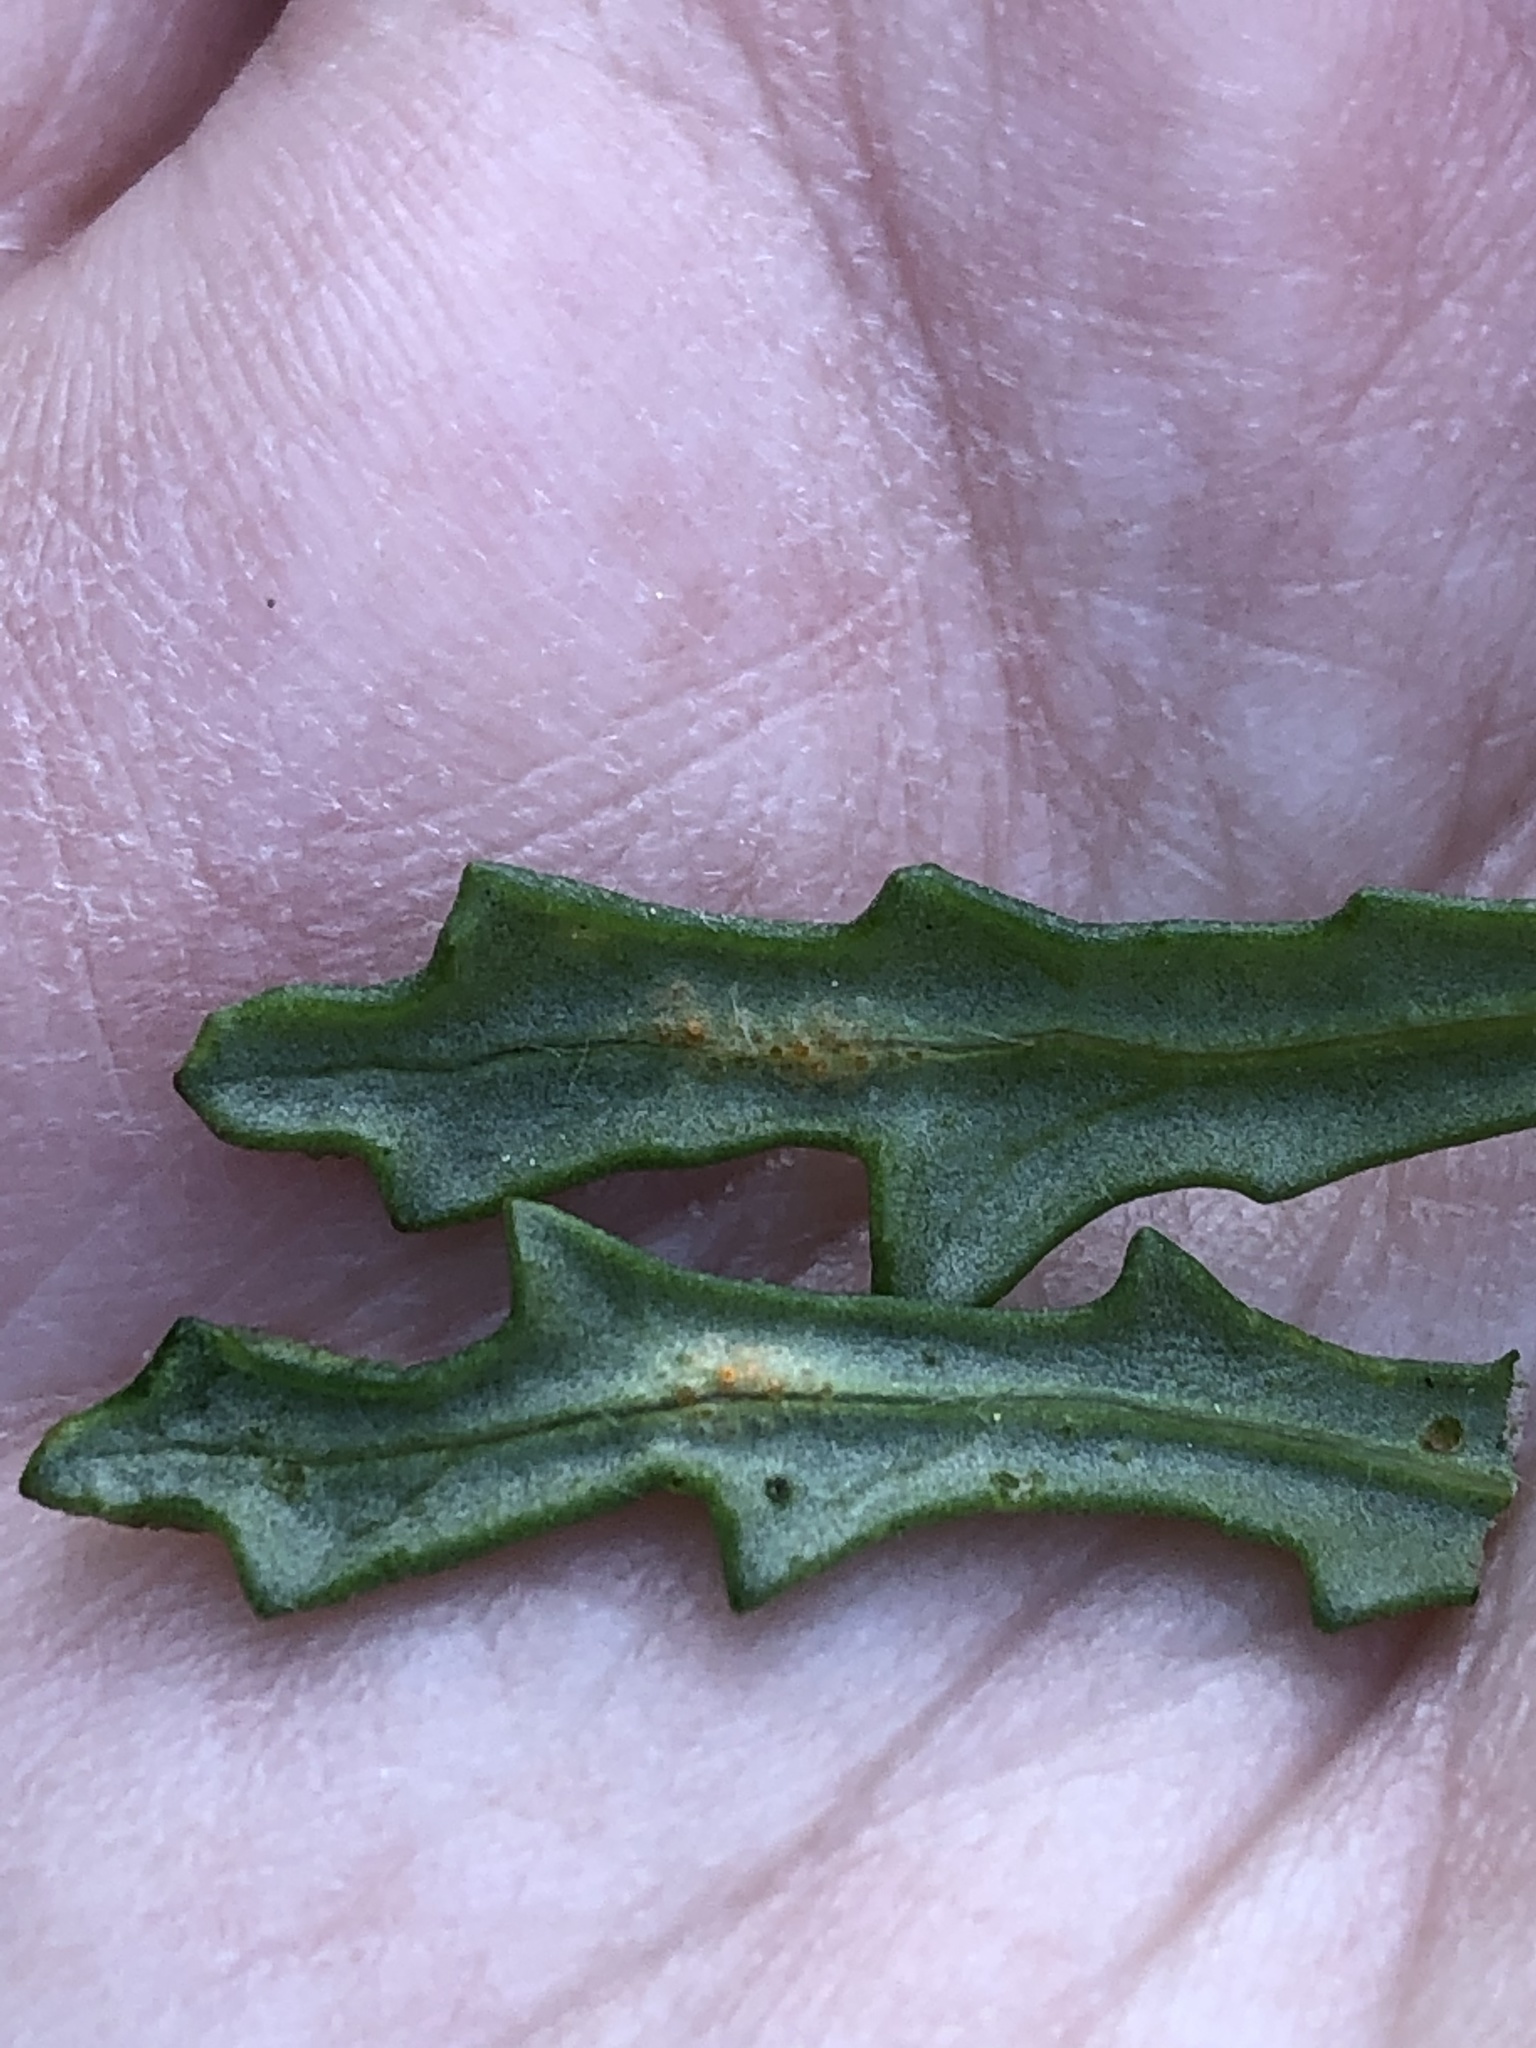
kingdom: Fungi
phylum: Basidiomycota
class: Pucciniomycetes
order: Pucciniales
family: Pucciniaceae
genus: Puccinia
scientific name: Puccinia lagenophorae
